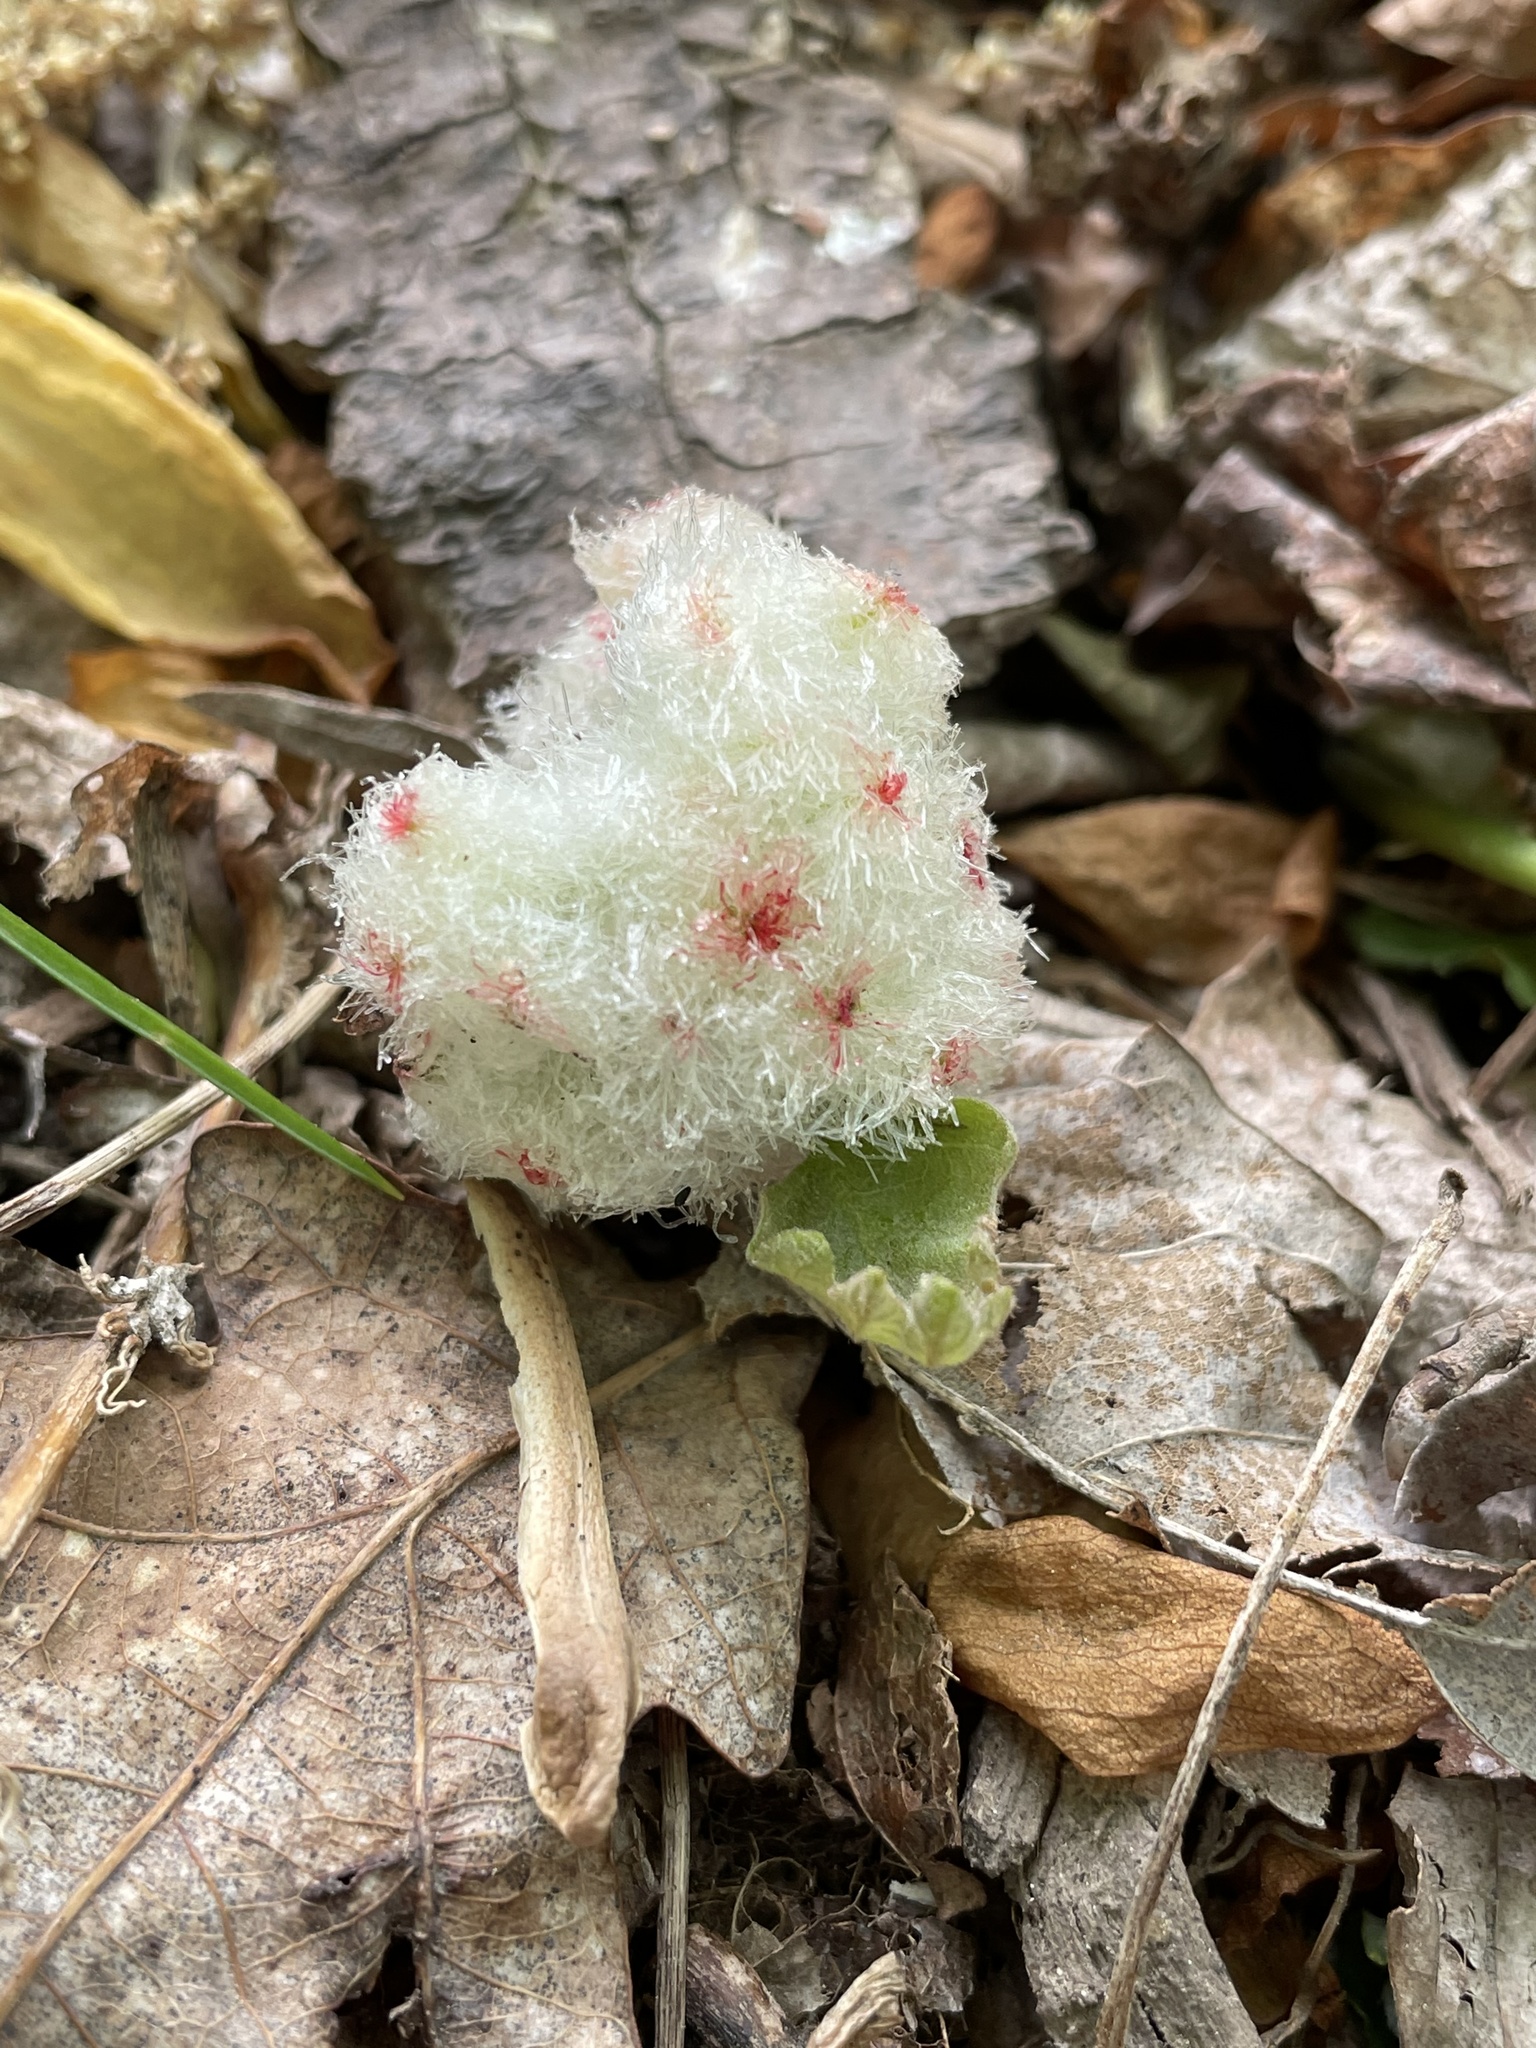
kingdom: Animalia
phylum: Arthropoda
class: Insecta
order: Hymenoptera
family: Cynipidae
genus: Callirhytis
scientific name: Callirhytis
